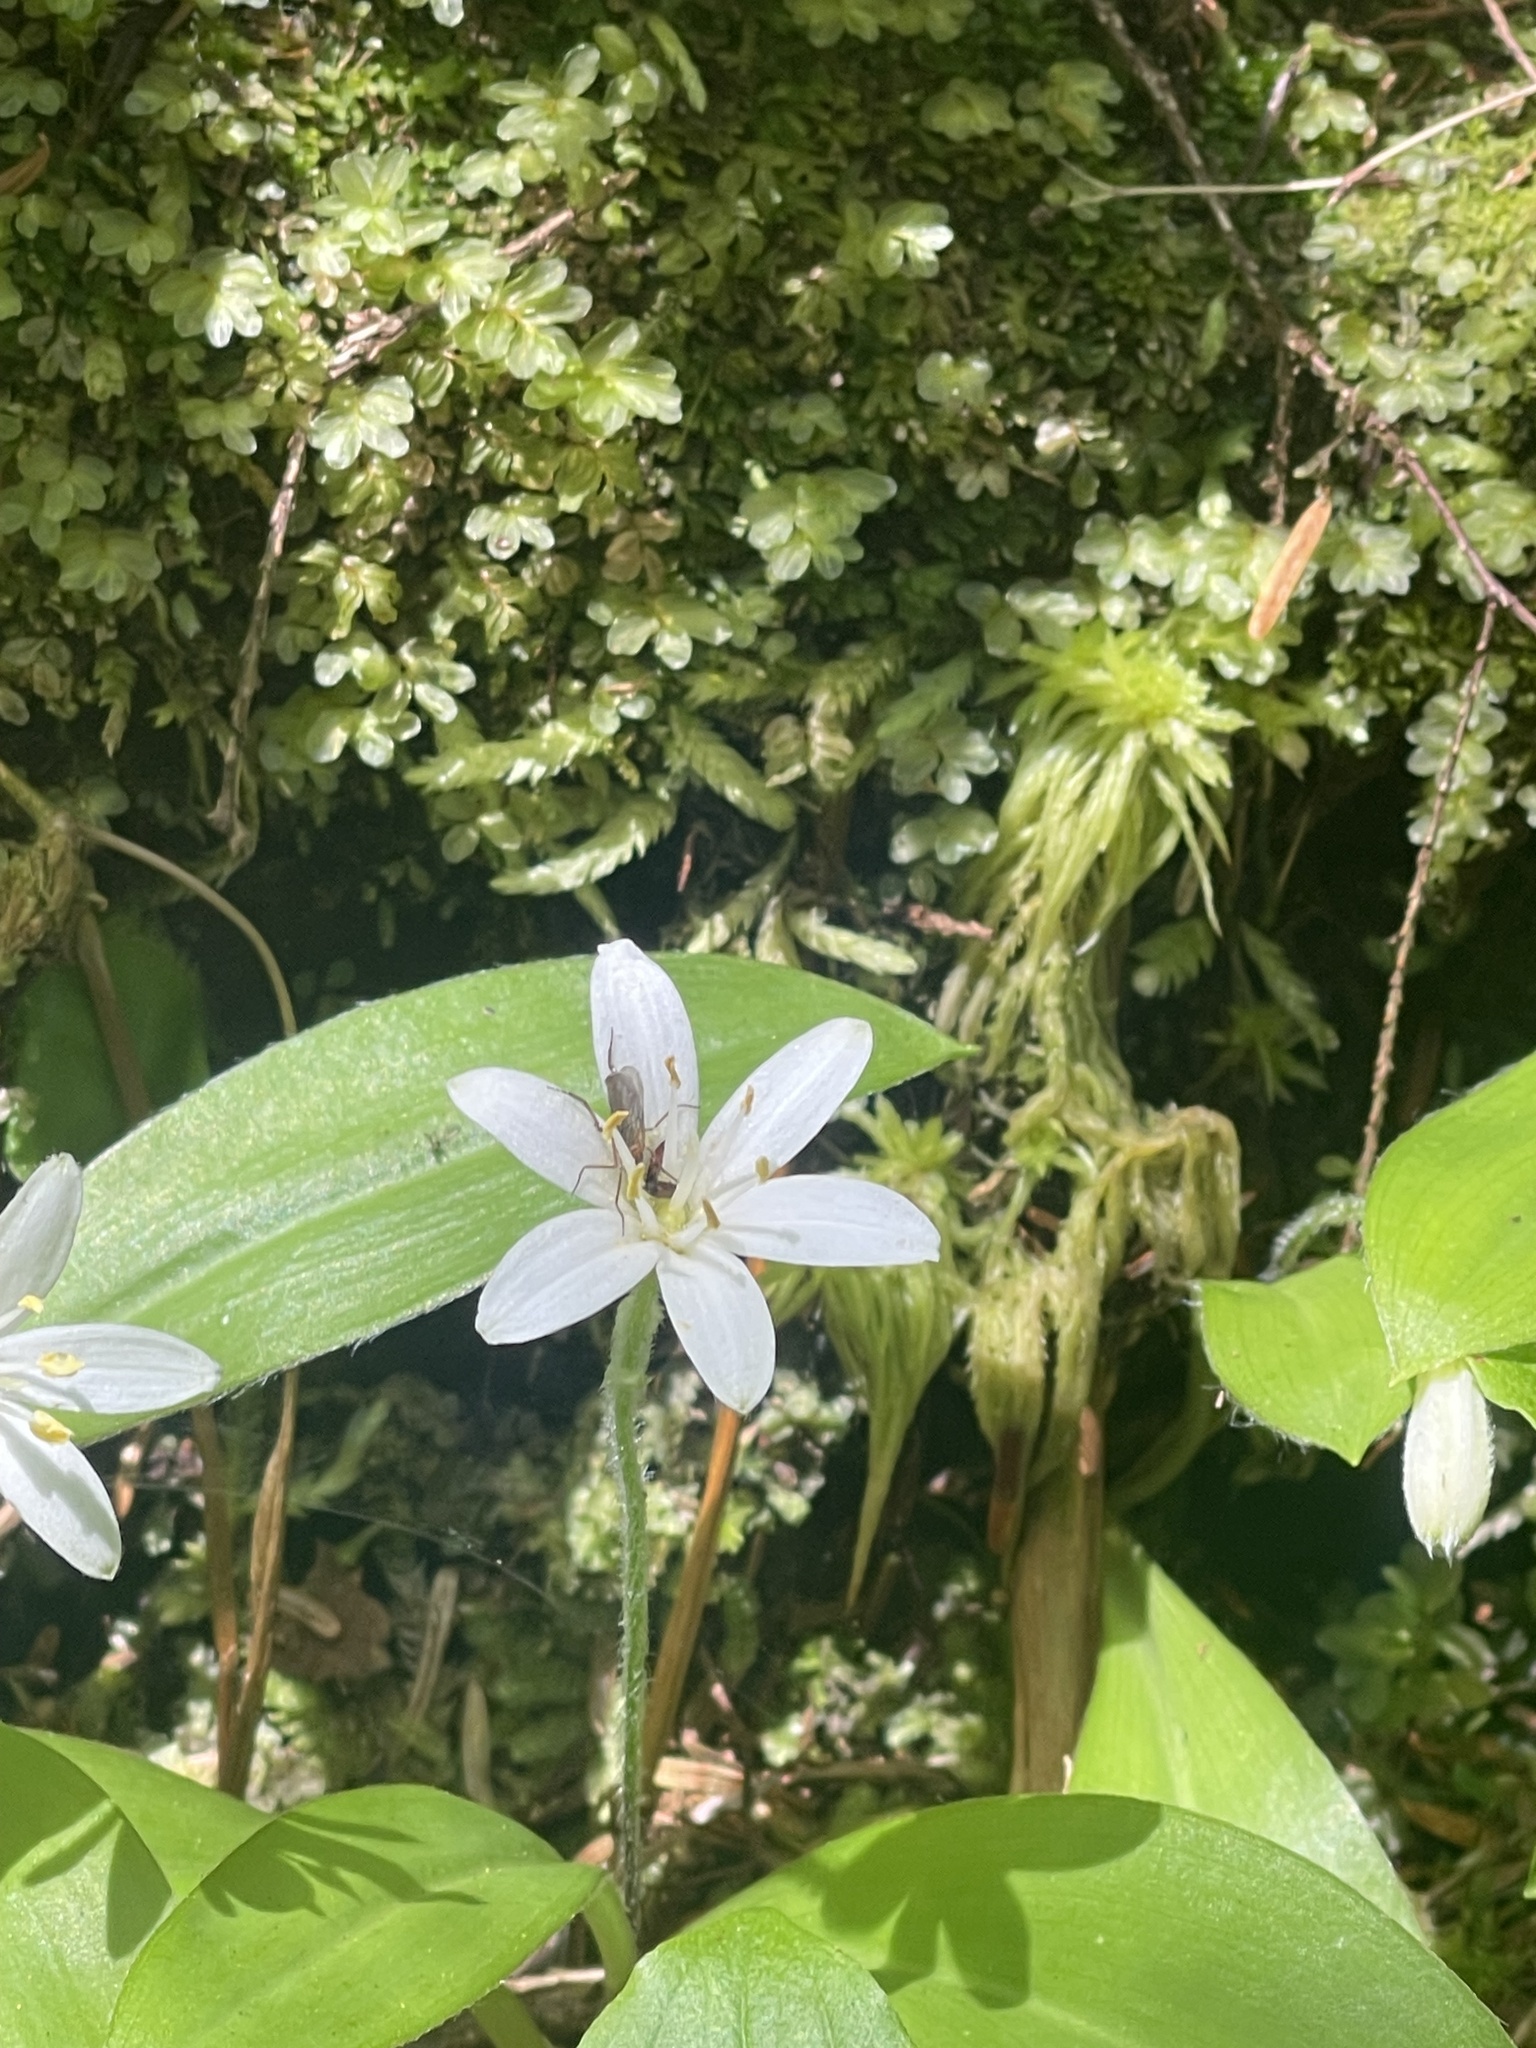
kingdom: Plantae
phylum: Tracheophyta
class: Liliopsida
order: Liliales
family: Liliaceae
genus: Clintonia
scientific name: Clintonia uniflora
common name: Queen's cup
